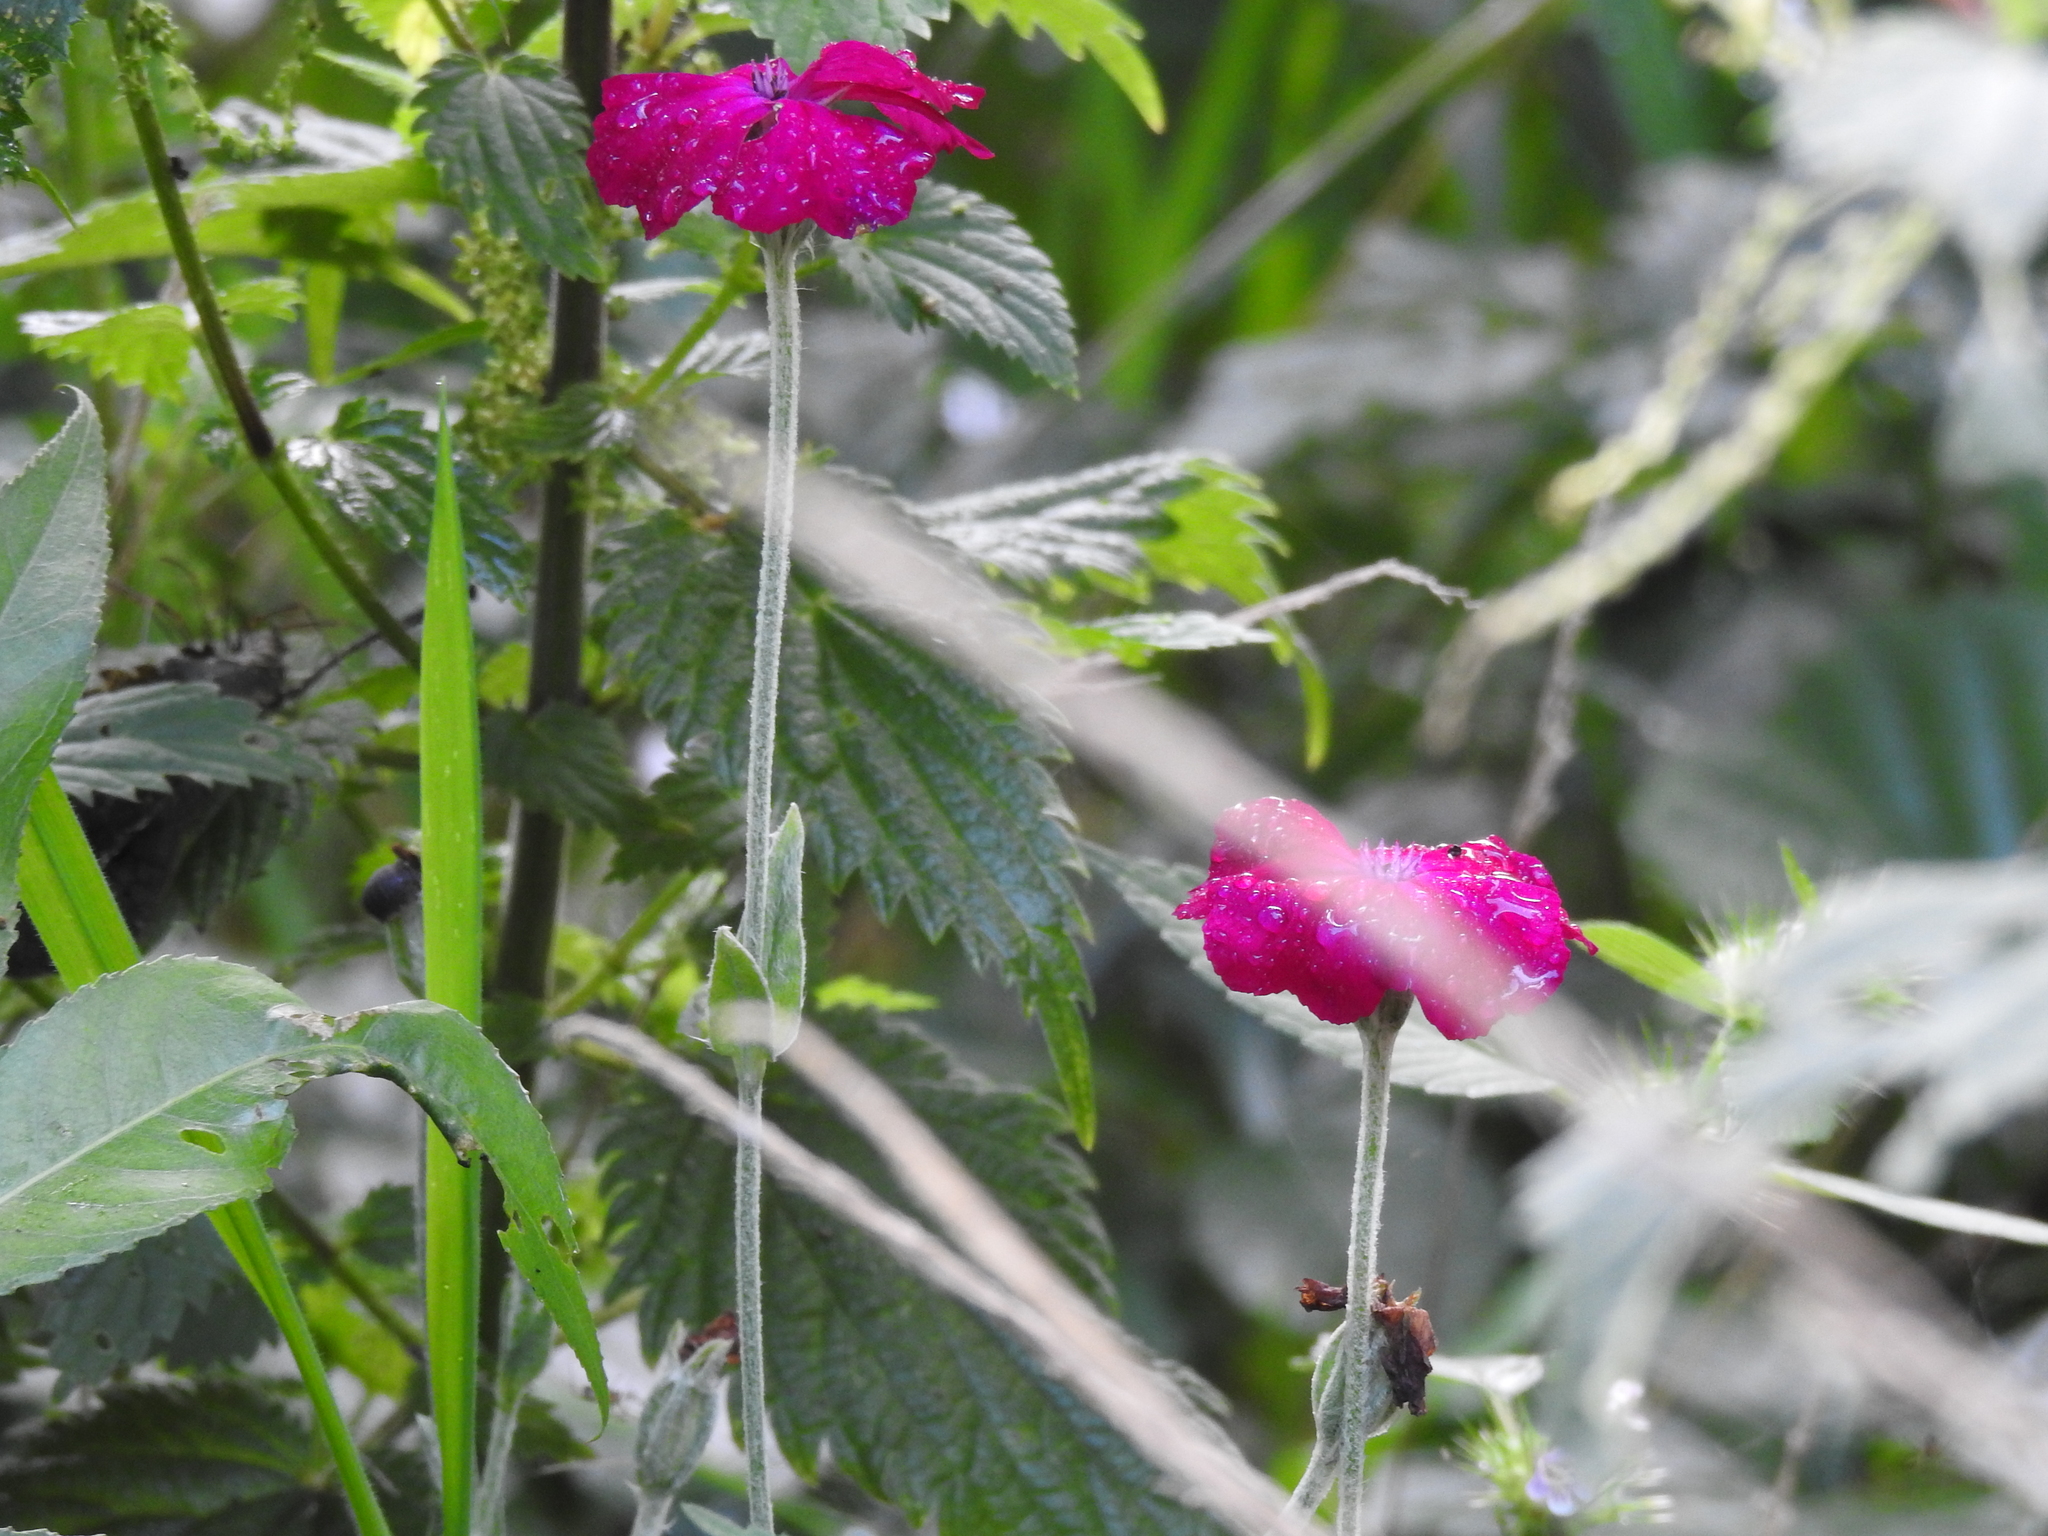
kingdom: Plantae
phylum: Tracheophyta
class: Magnoliopsida
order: Caryophyllales
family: Caryophyllaceae
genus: Silene
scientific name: Silene coronaria
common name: Rose campion
